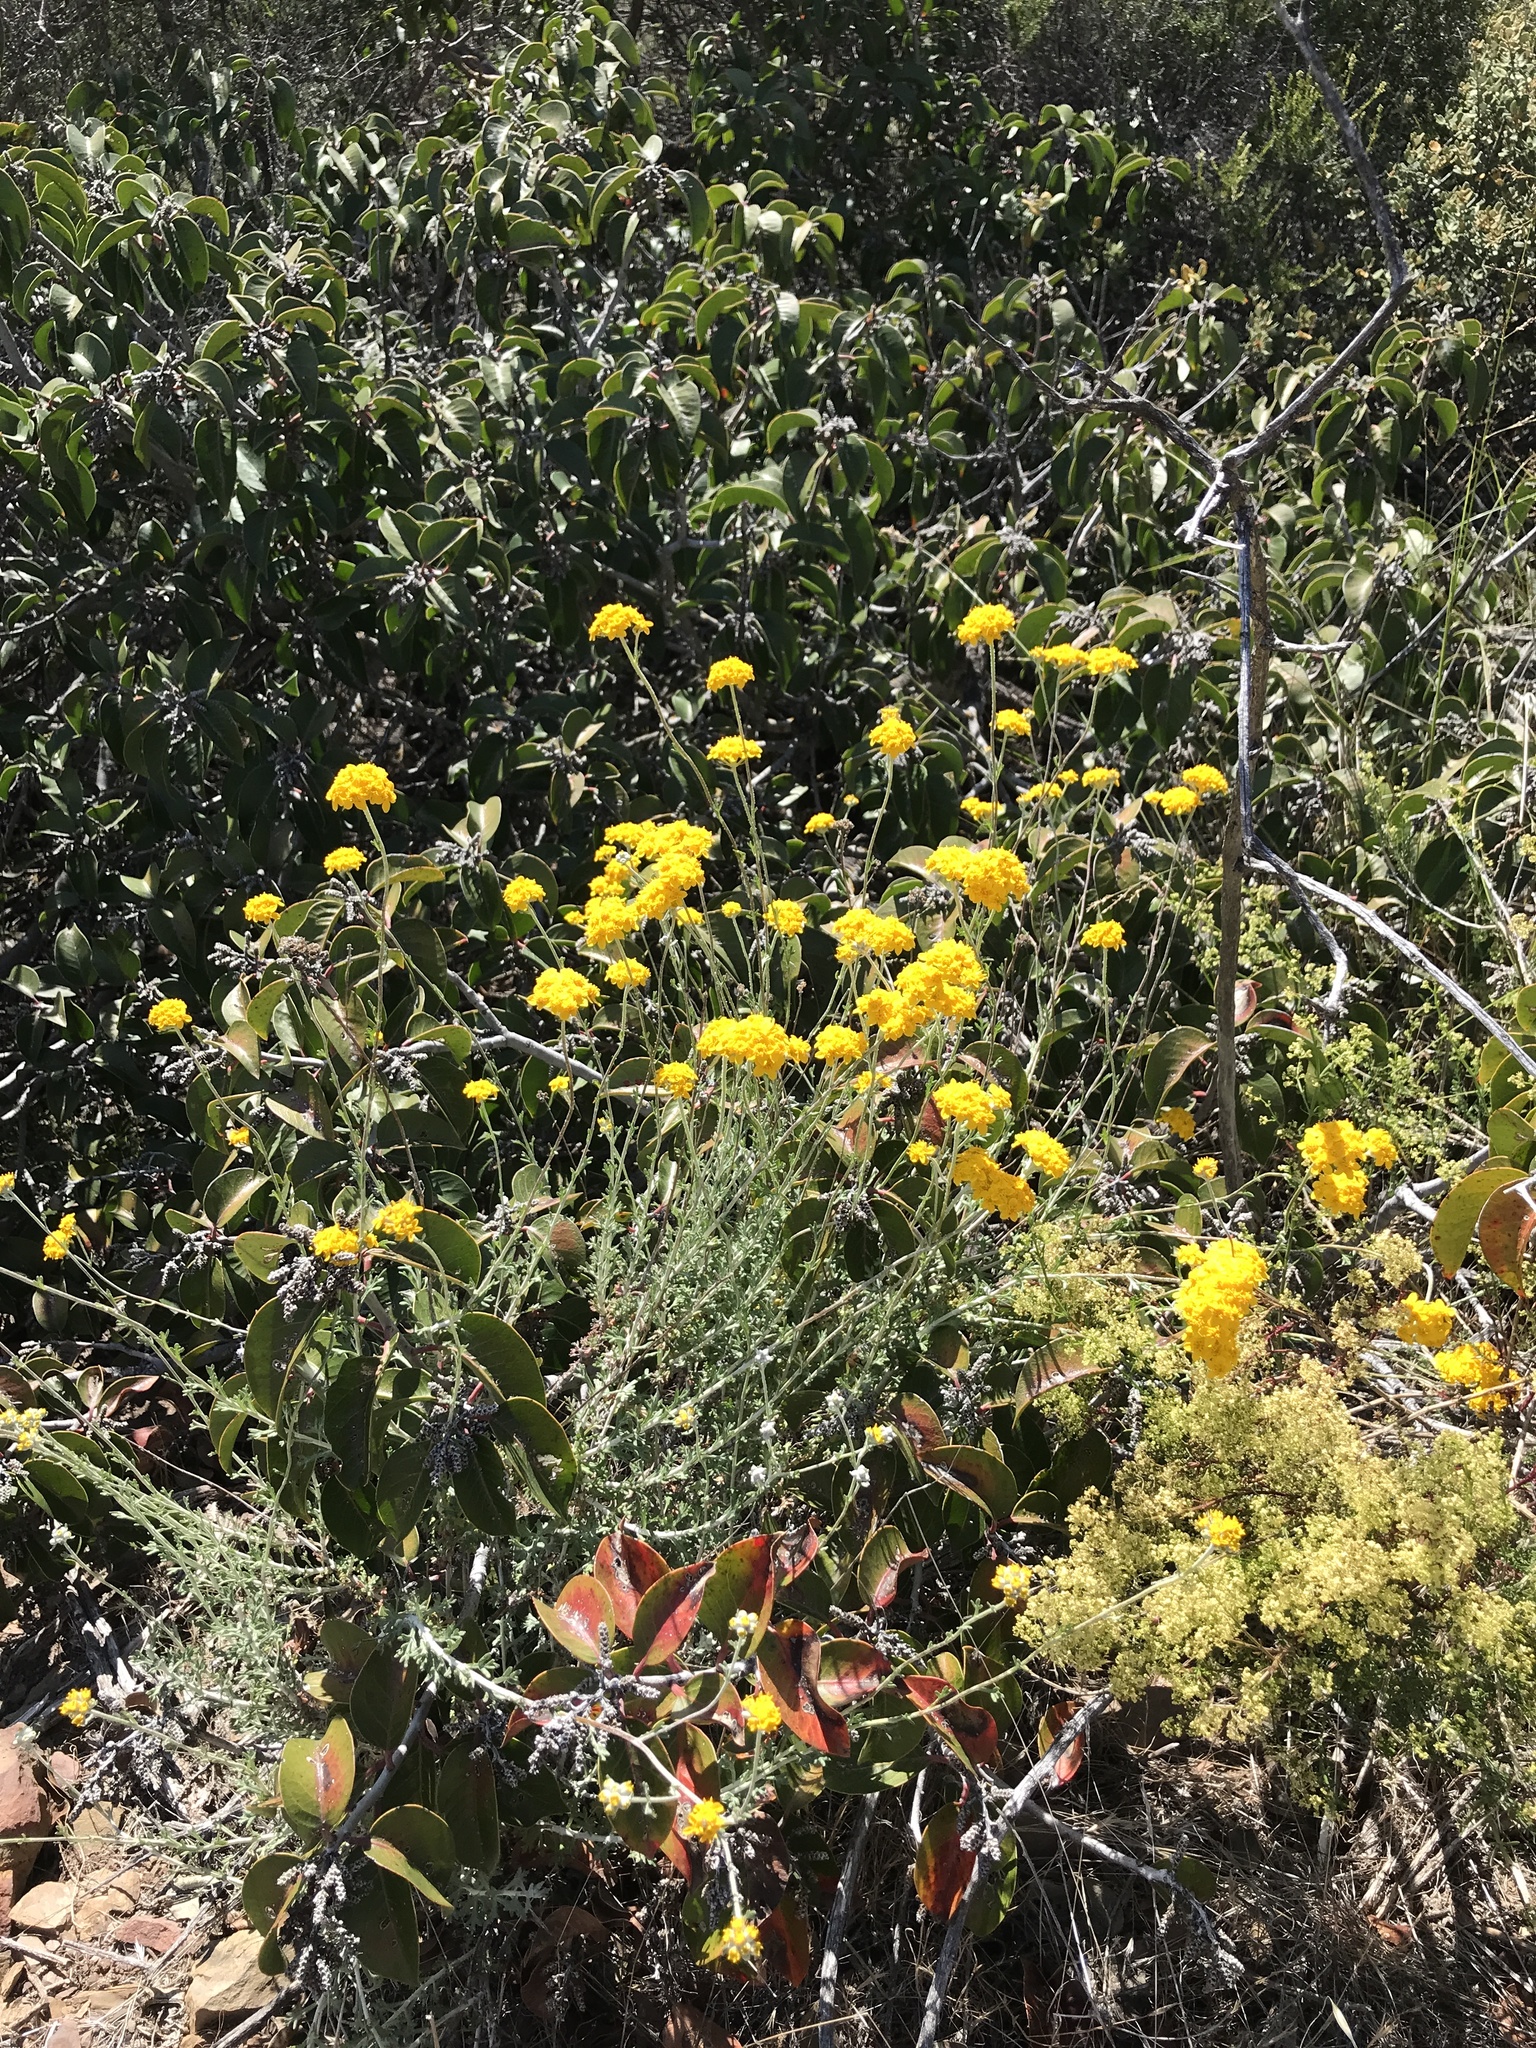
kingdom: Plantae
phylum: Tracheophyta
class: Magnoliopsida
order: Asterales
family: Asteraceae
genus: Eriophyllum
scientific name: Eriophyllum confertiflorum
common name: Golden-yarrow
